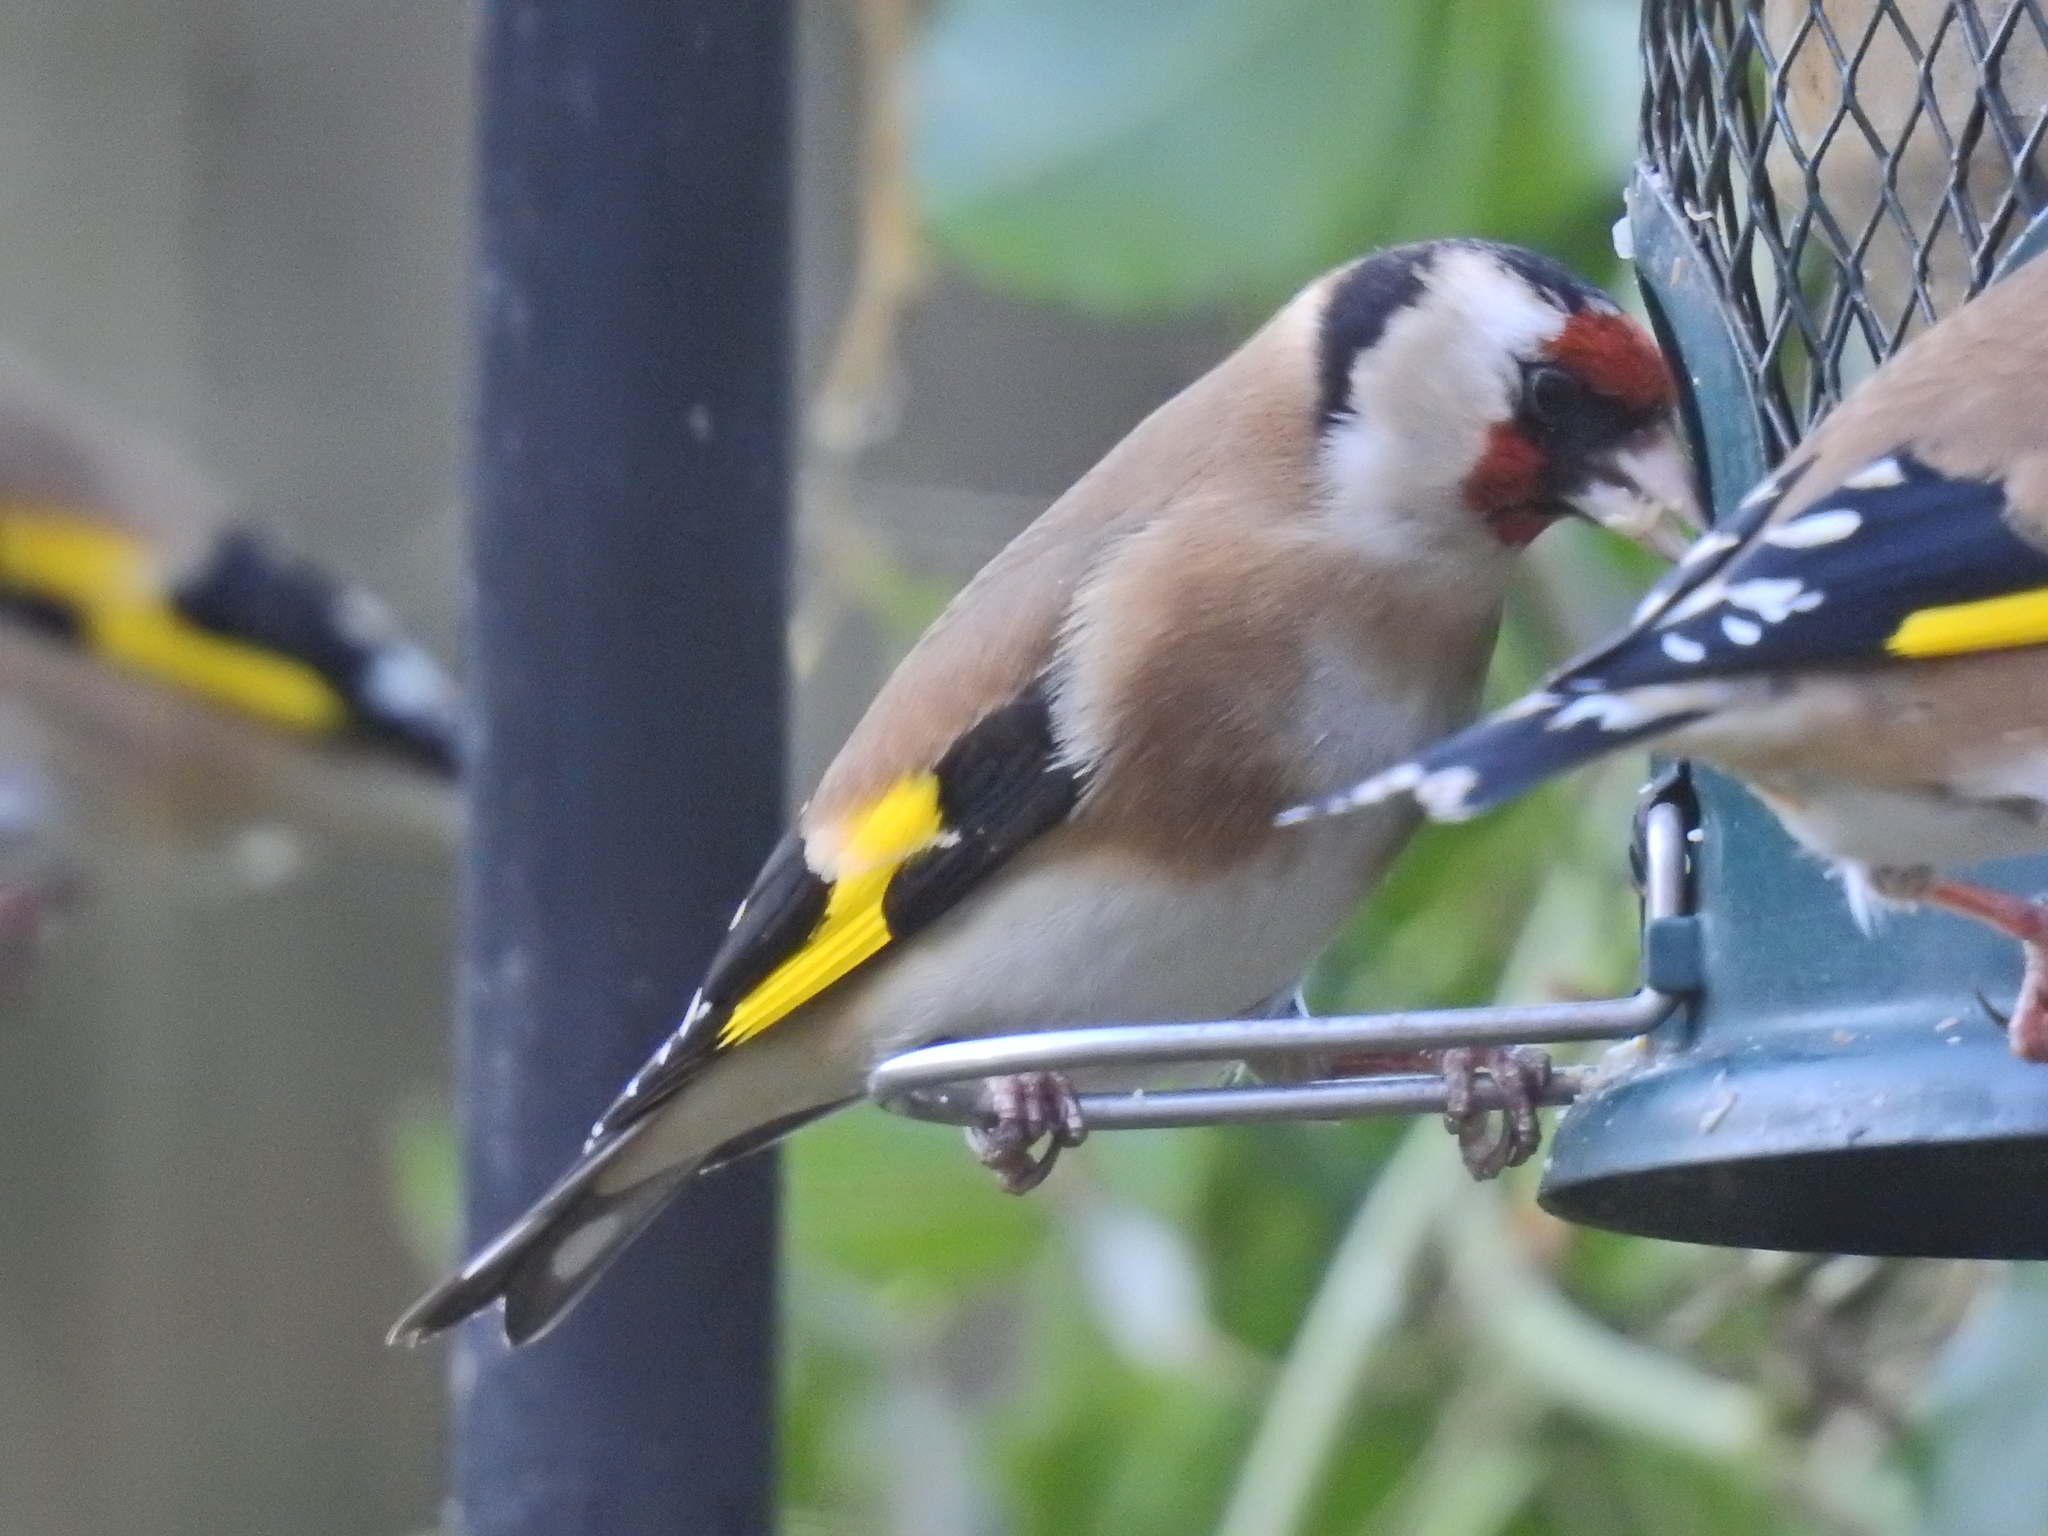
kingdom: Animalia
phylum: Chordata
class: Aves
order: Passeriformes
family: Fringillidae
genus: Carduelis
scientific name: Carduelis carduelis
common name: European goldfinch
